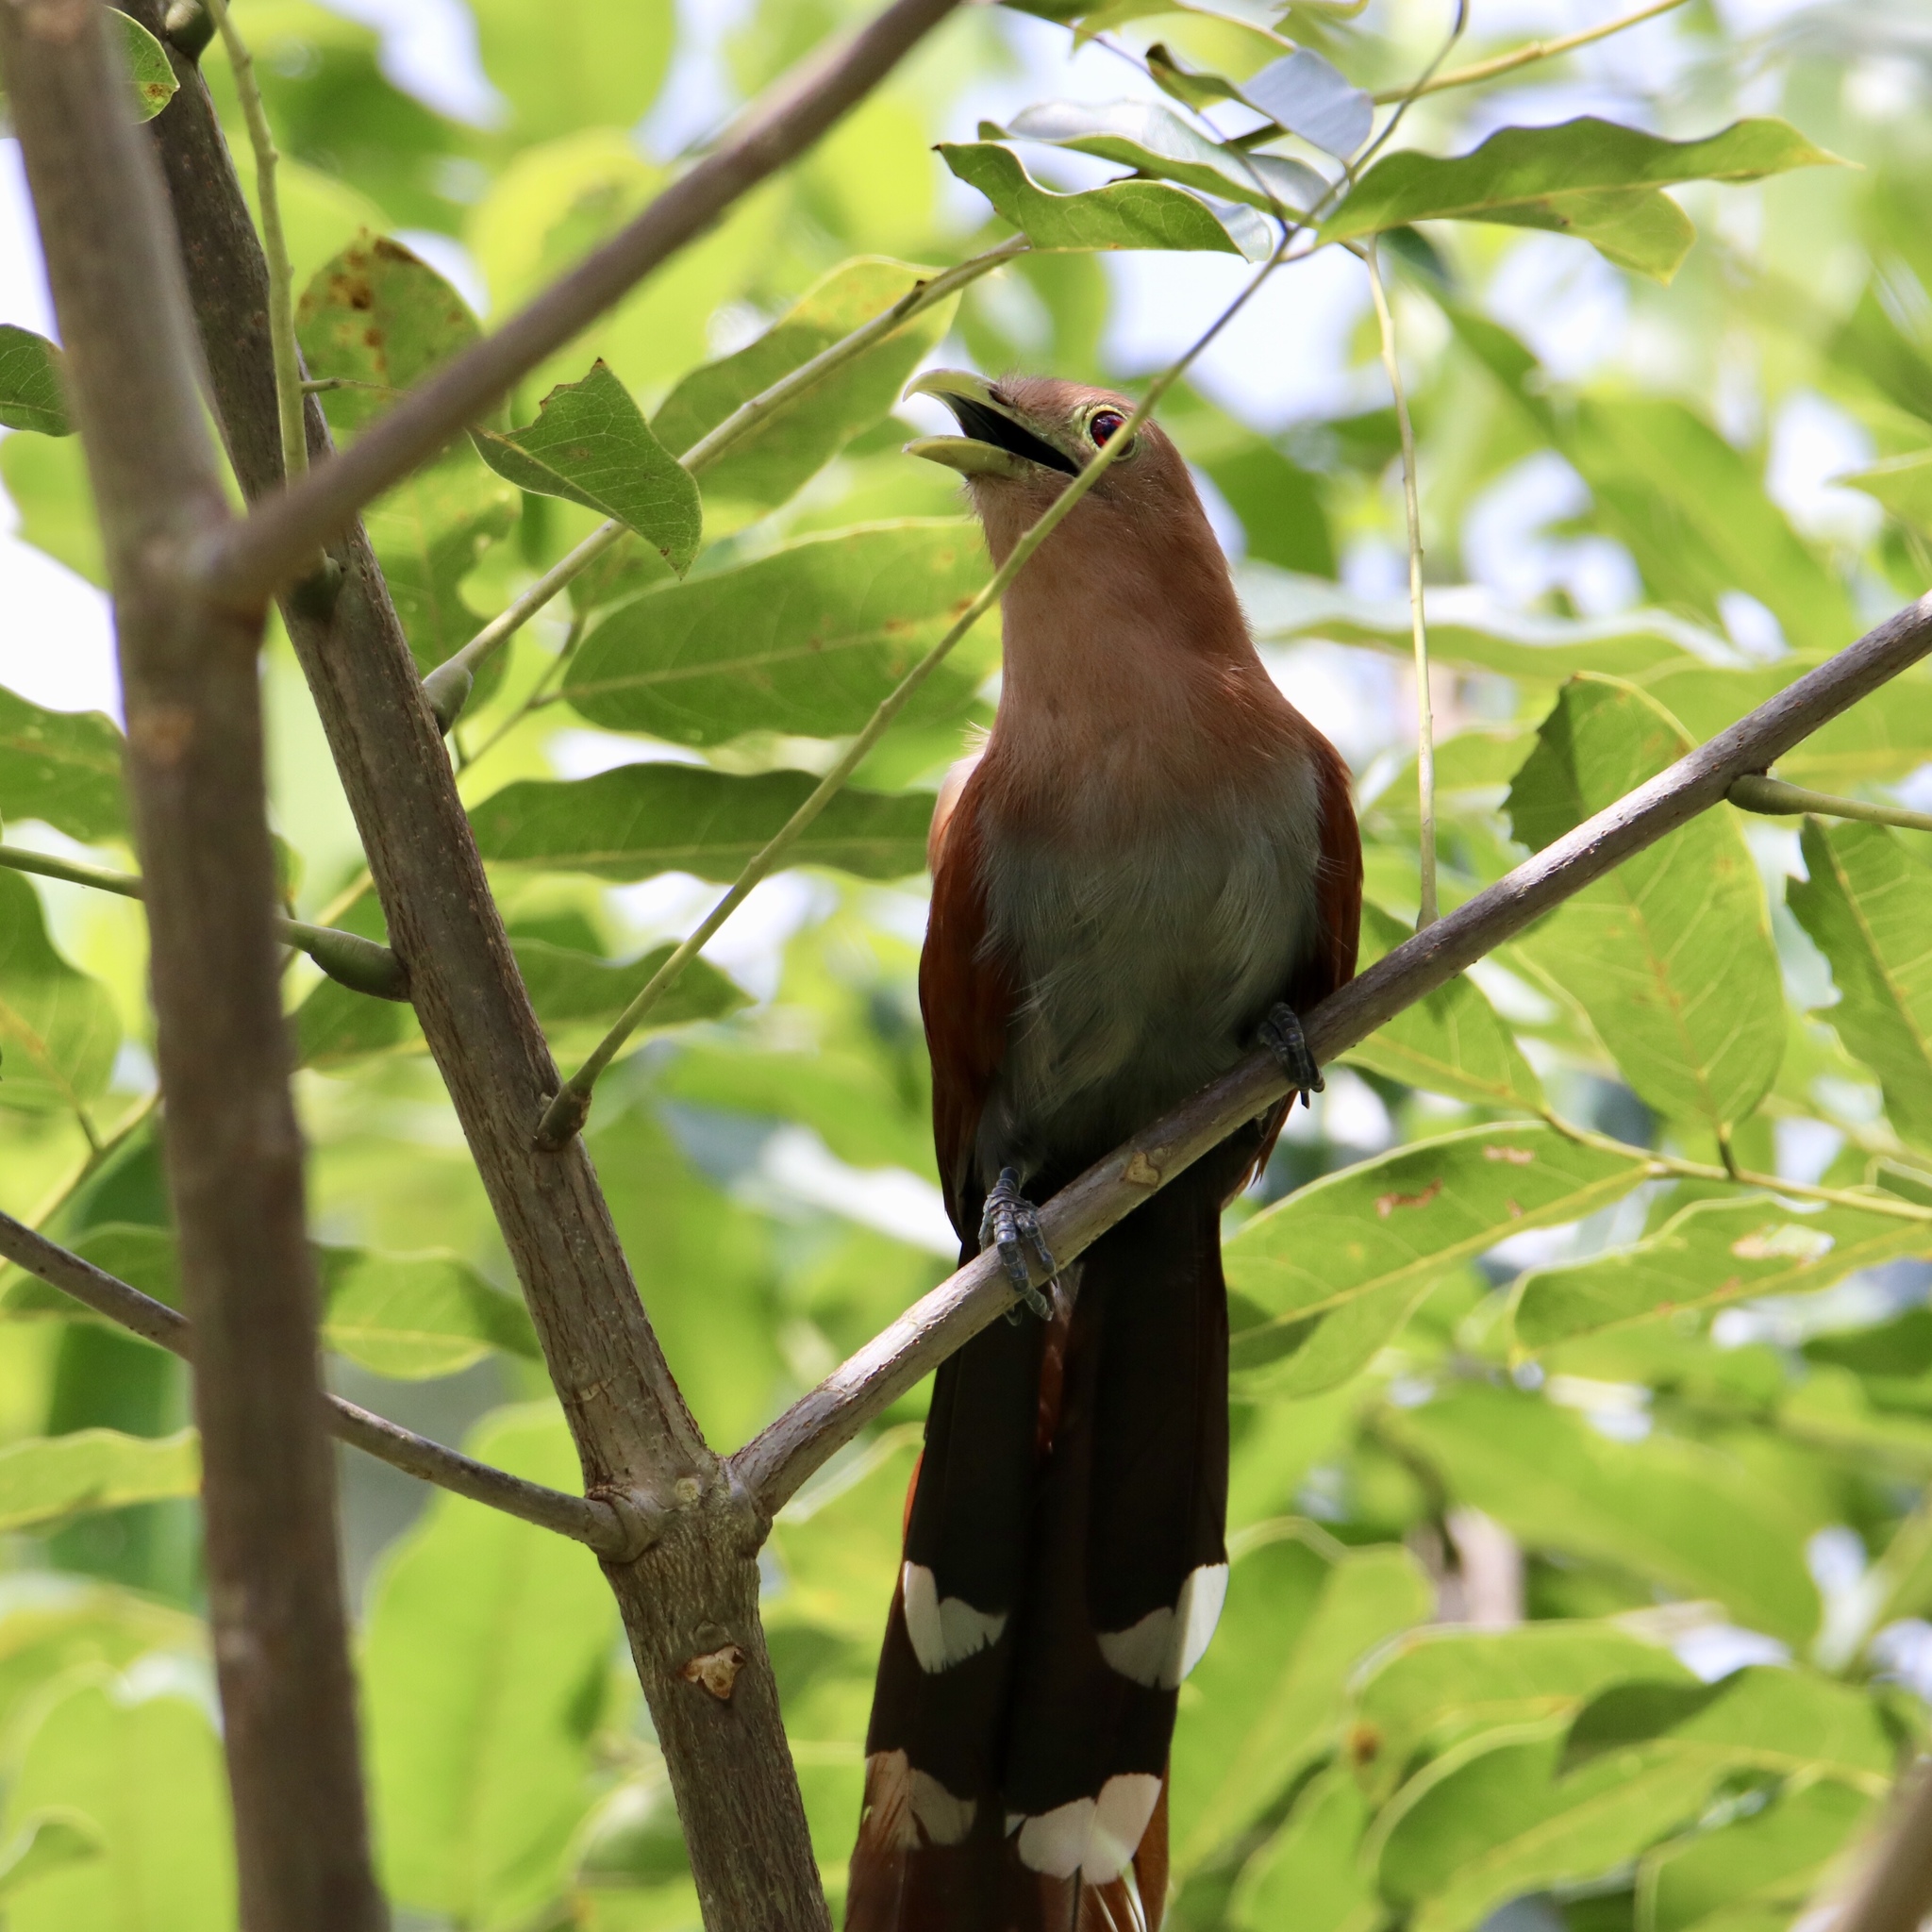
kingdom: Animalia
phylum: Chordata
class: Aves
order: Cuculiformes
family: Cuculidae
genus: Piaya
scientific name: Piaya cayana
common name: Squirrel cuckoo
